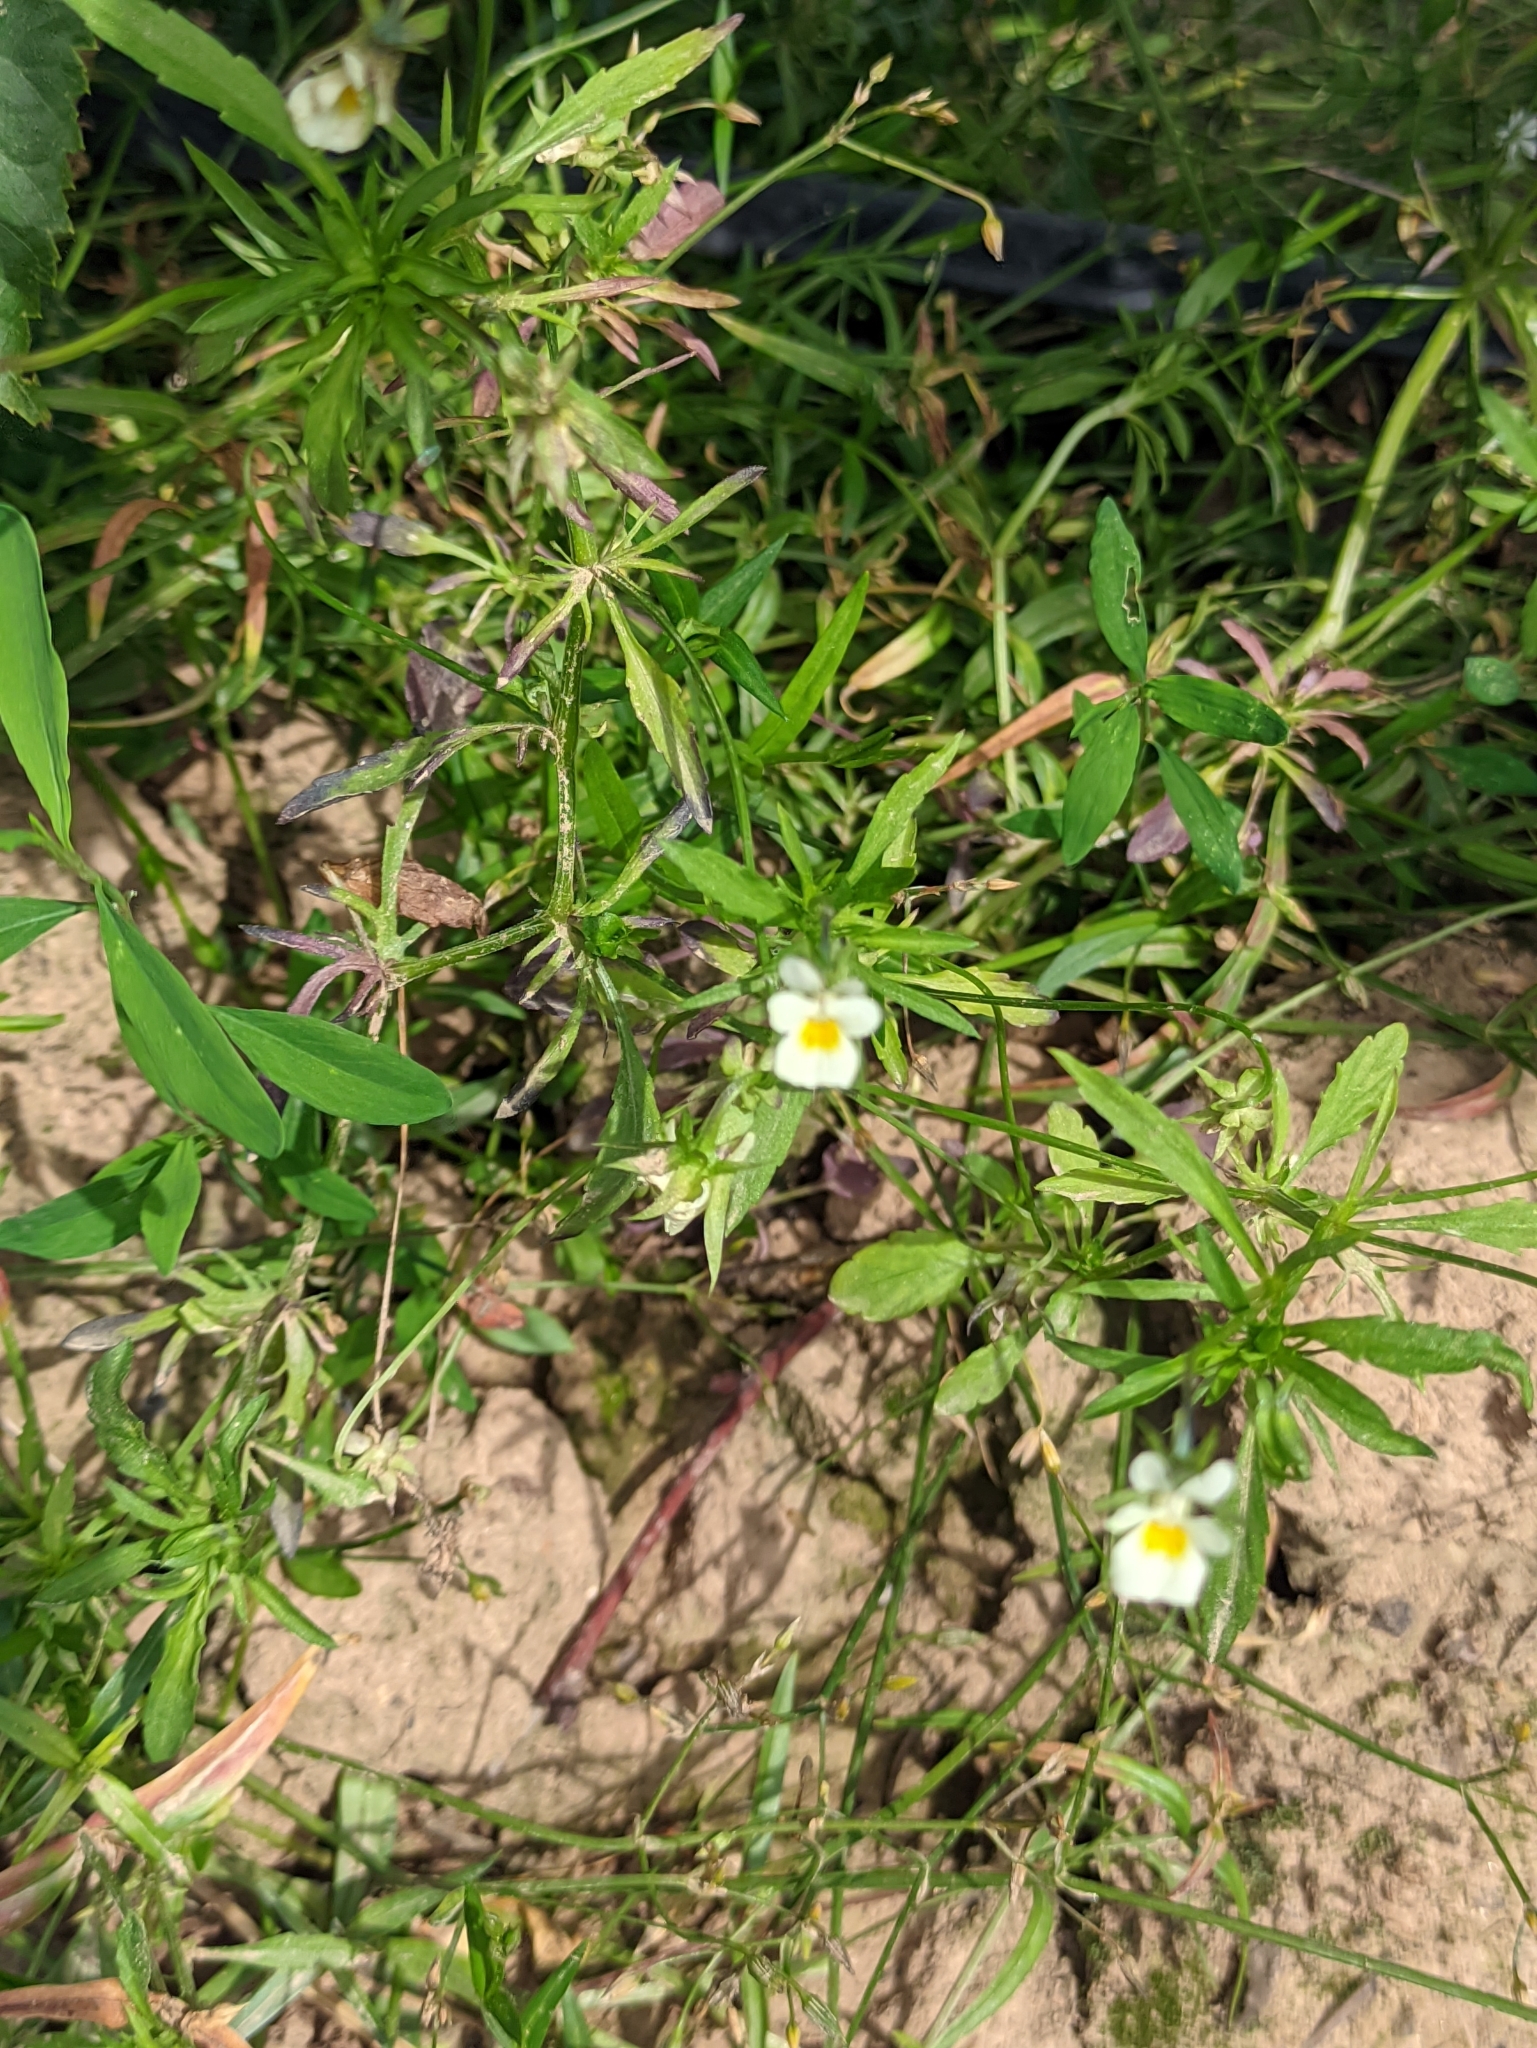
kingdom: Plantae
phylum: Tracheophyta
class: Magnoliopsida
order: Malpighiales
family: Violaceae
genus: Viola
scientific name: Viola arvensis
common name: Field pansy
